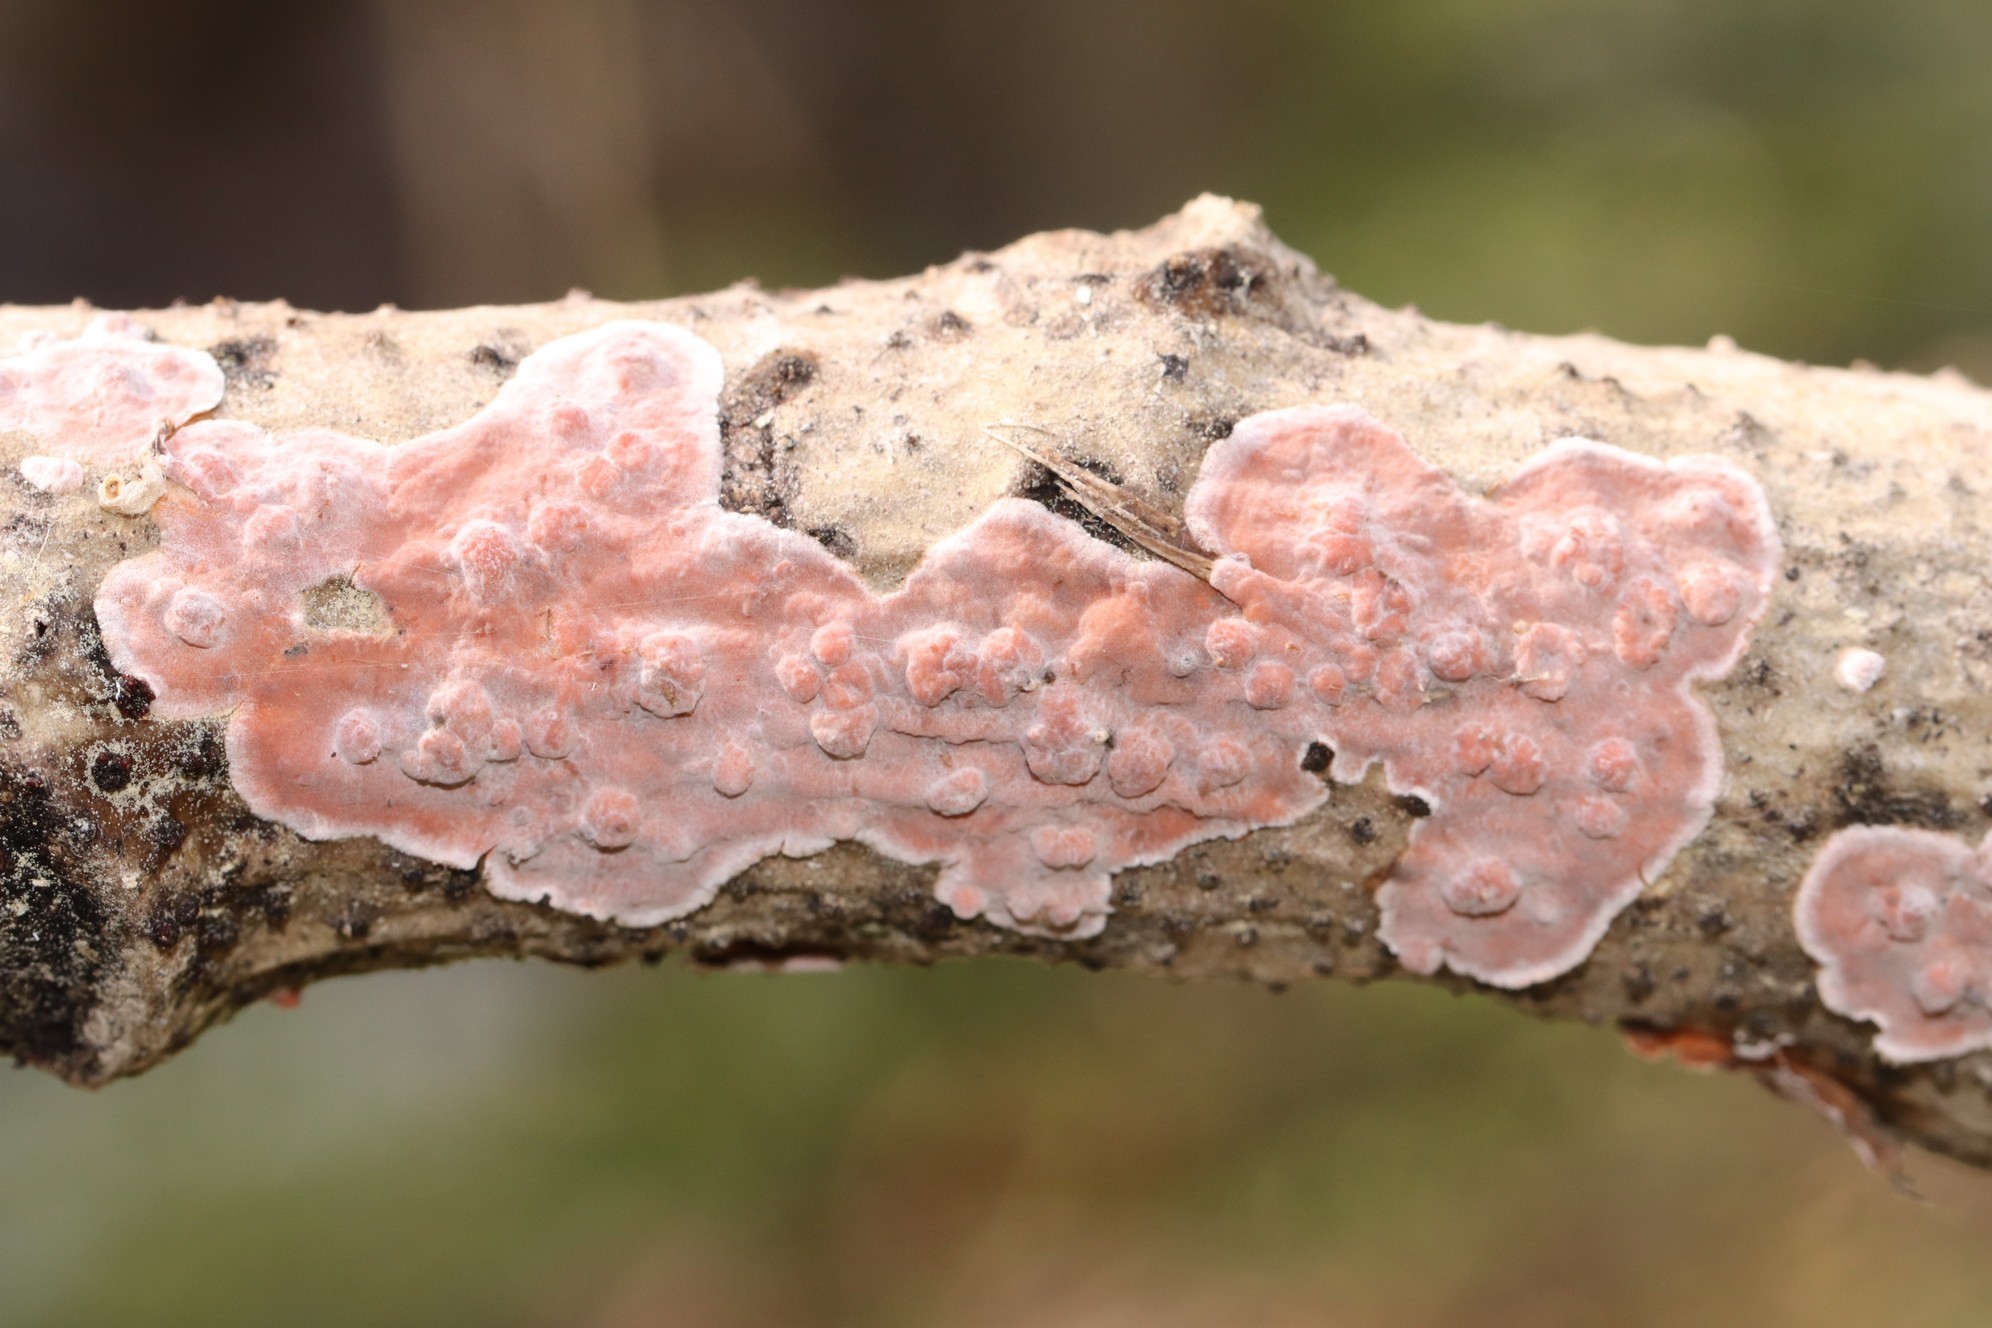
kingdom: Fungi
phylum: Basidiomycota
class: Agaricomycetes
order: Russulales
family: Peniophoraceae
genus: Peniophora
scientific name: Peniophora rufa
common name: Red tree brain fungus
